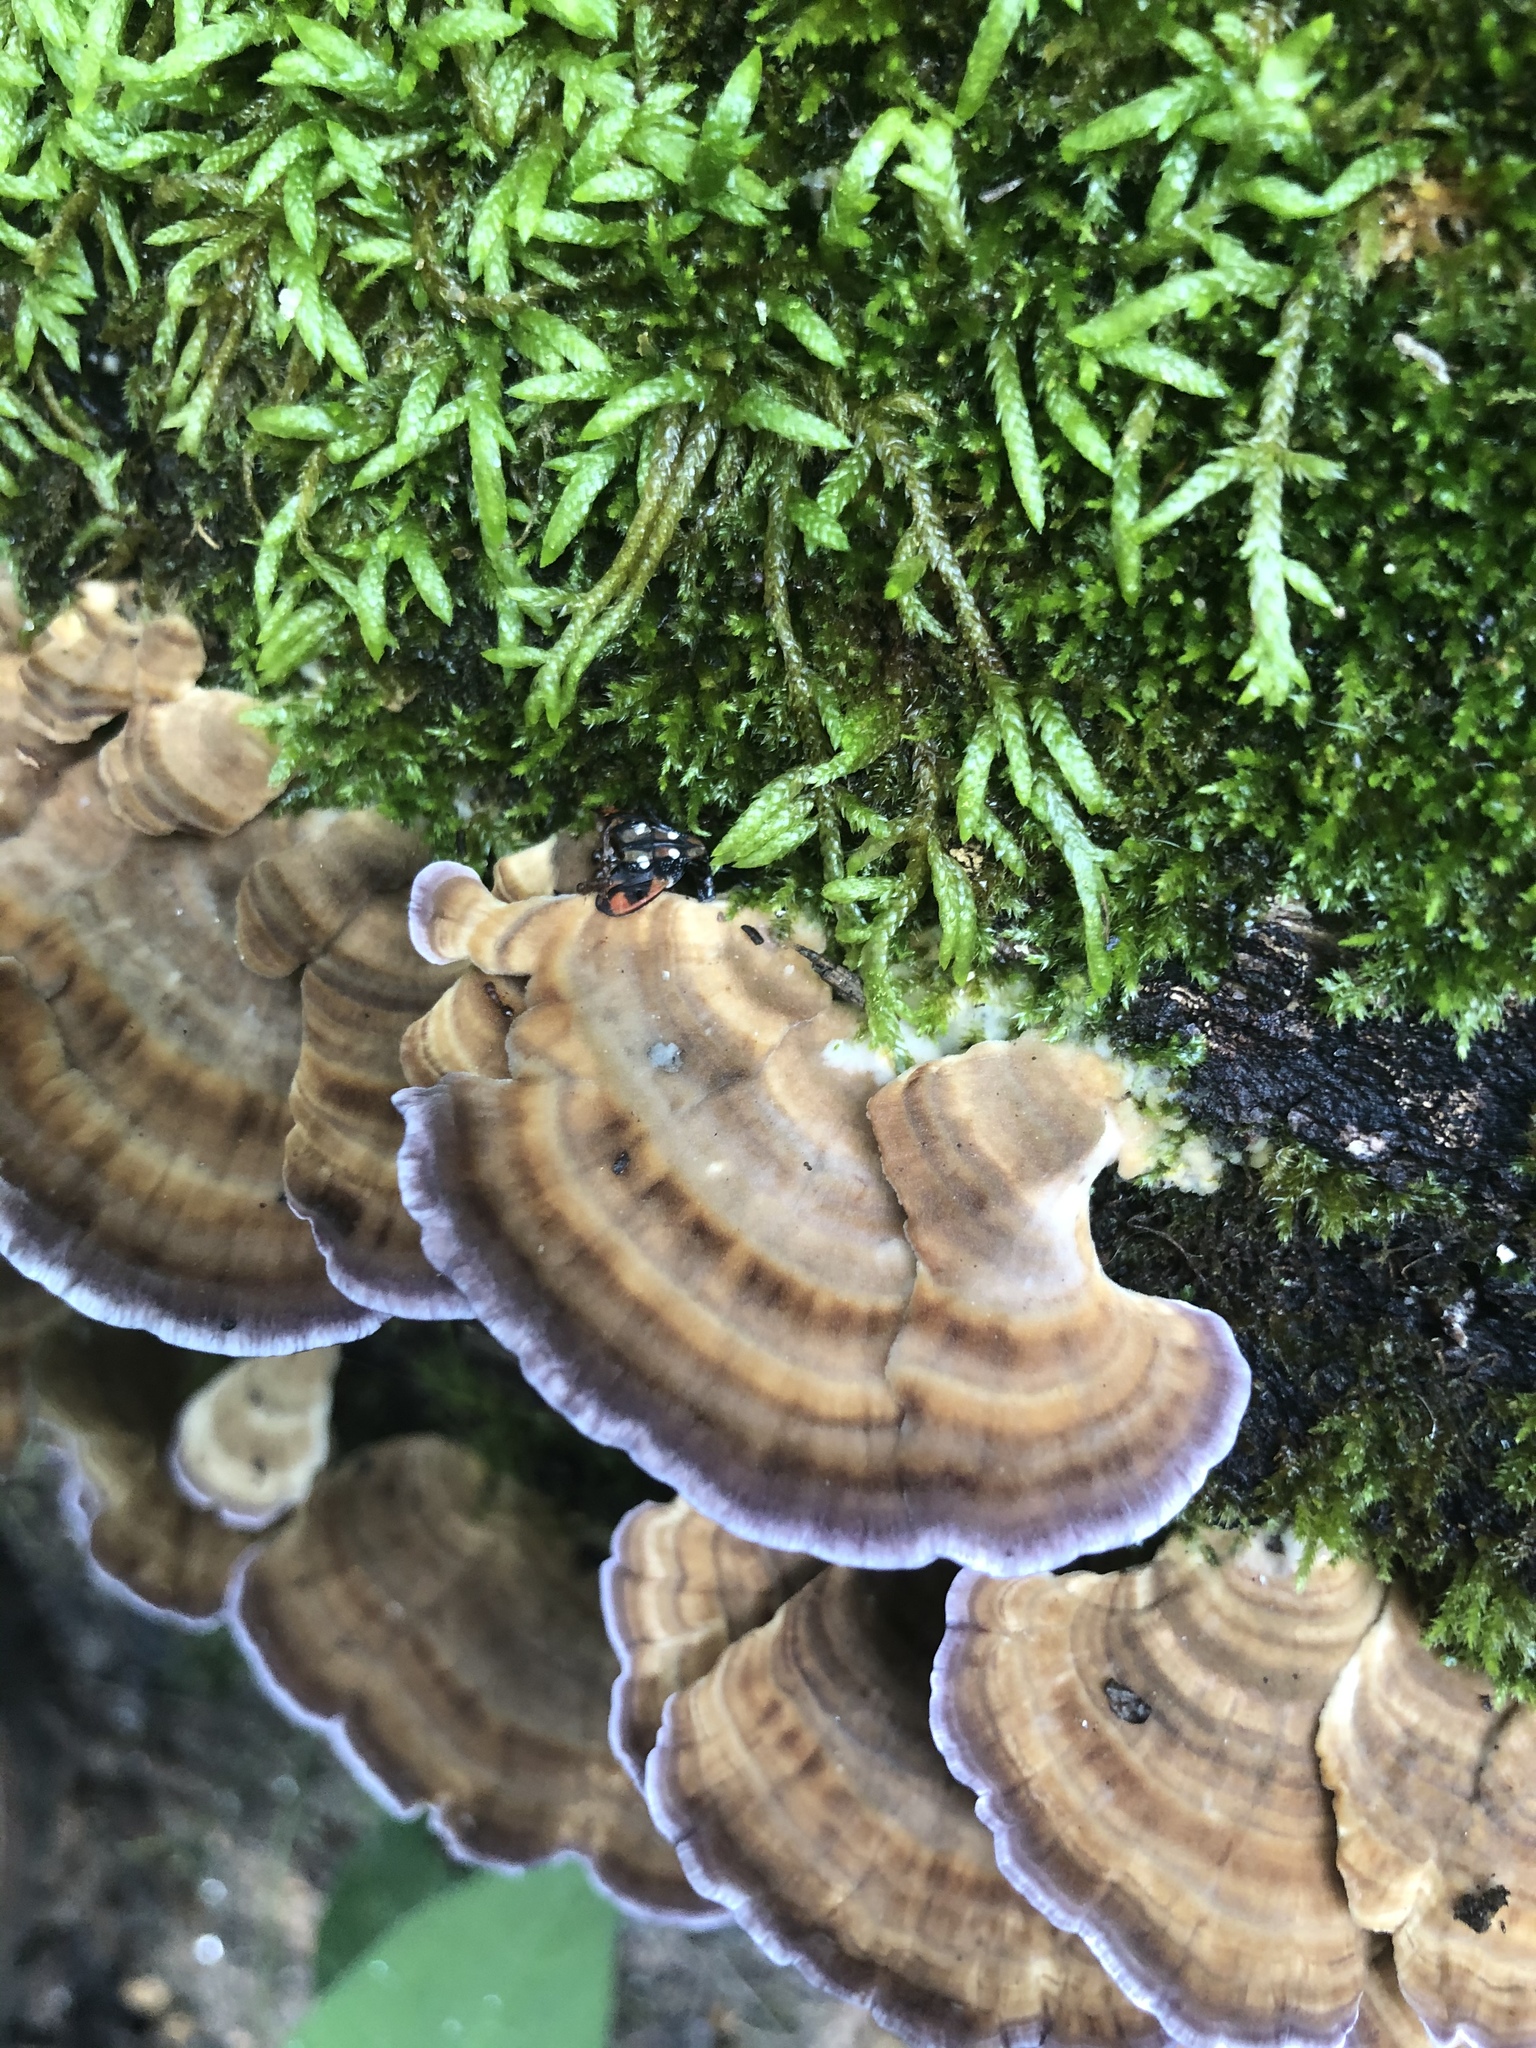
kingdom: Fungi
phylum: Basidiomycota
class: Agaricomycetes
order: Hymenochaetales
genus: Trichaptum
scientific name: Trichaptum biforme
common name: Violet-toothed polypore
